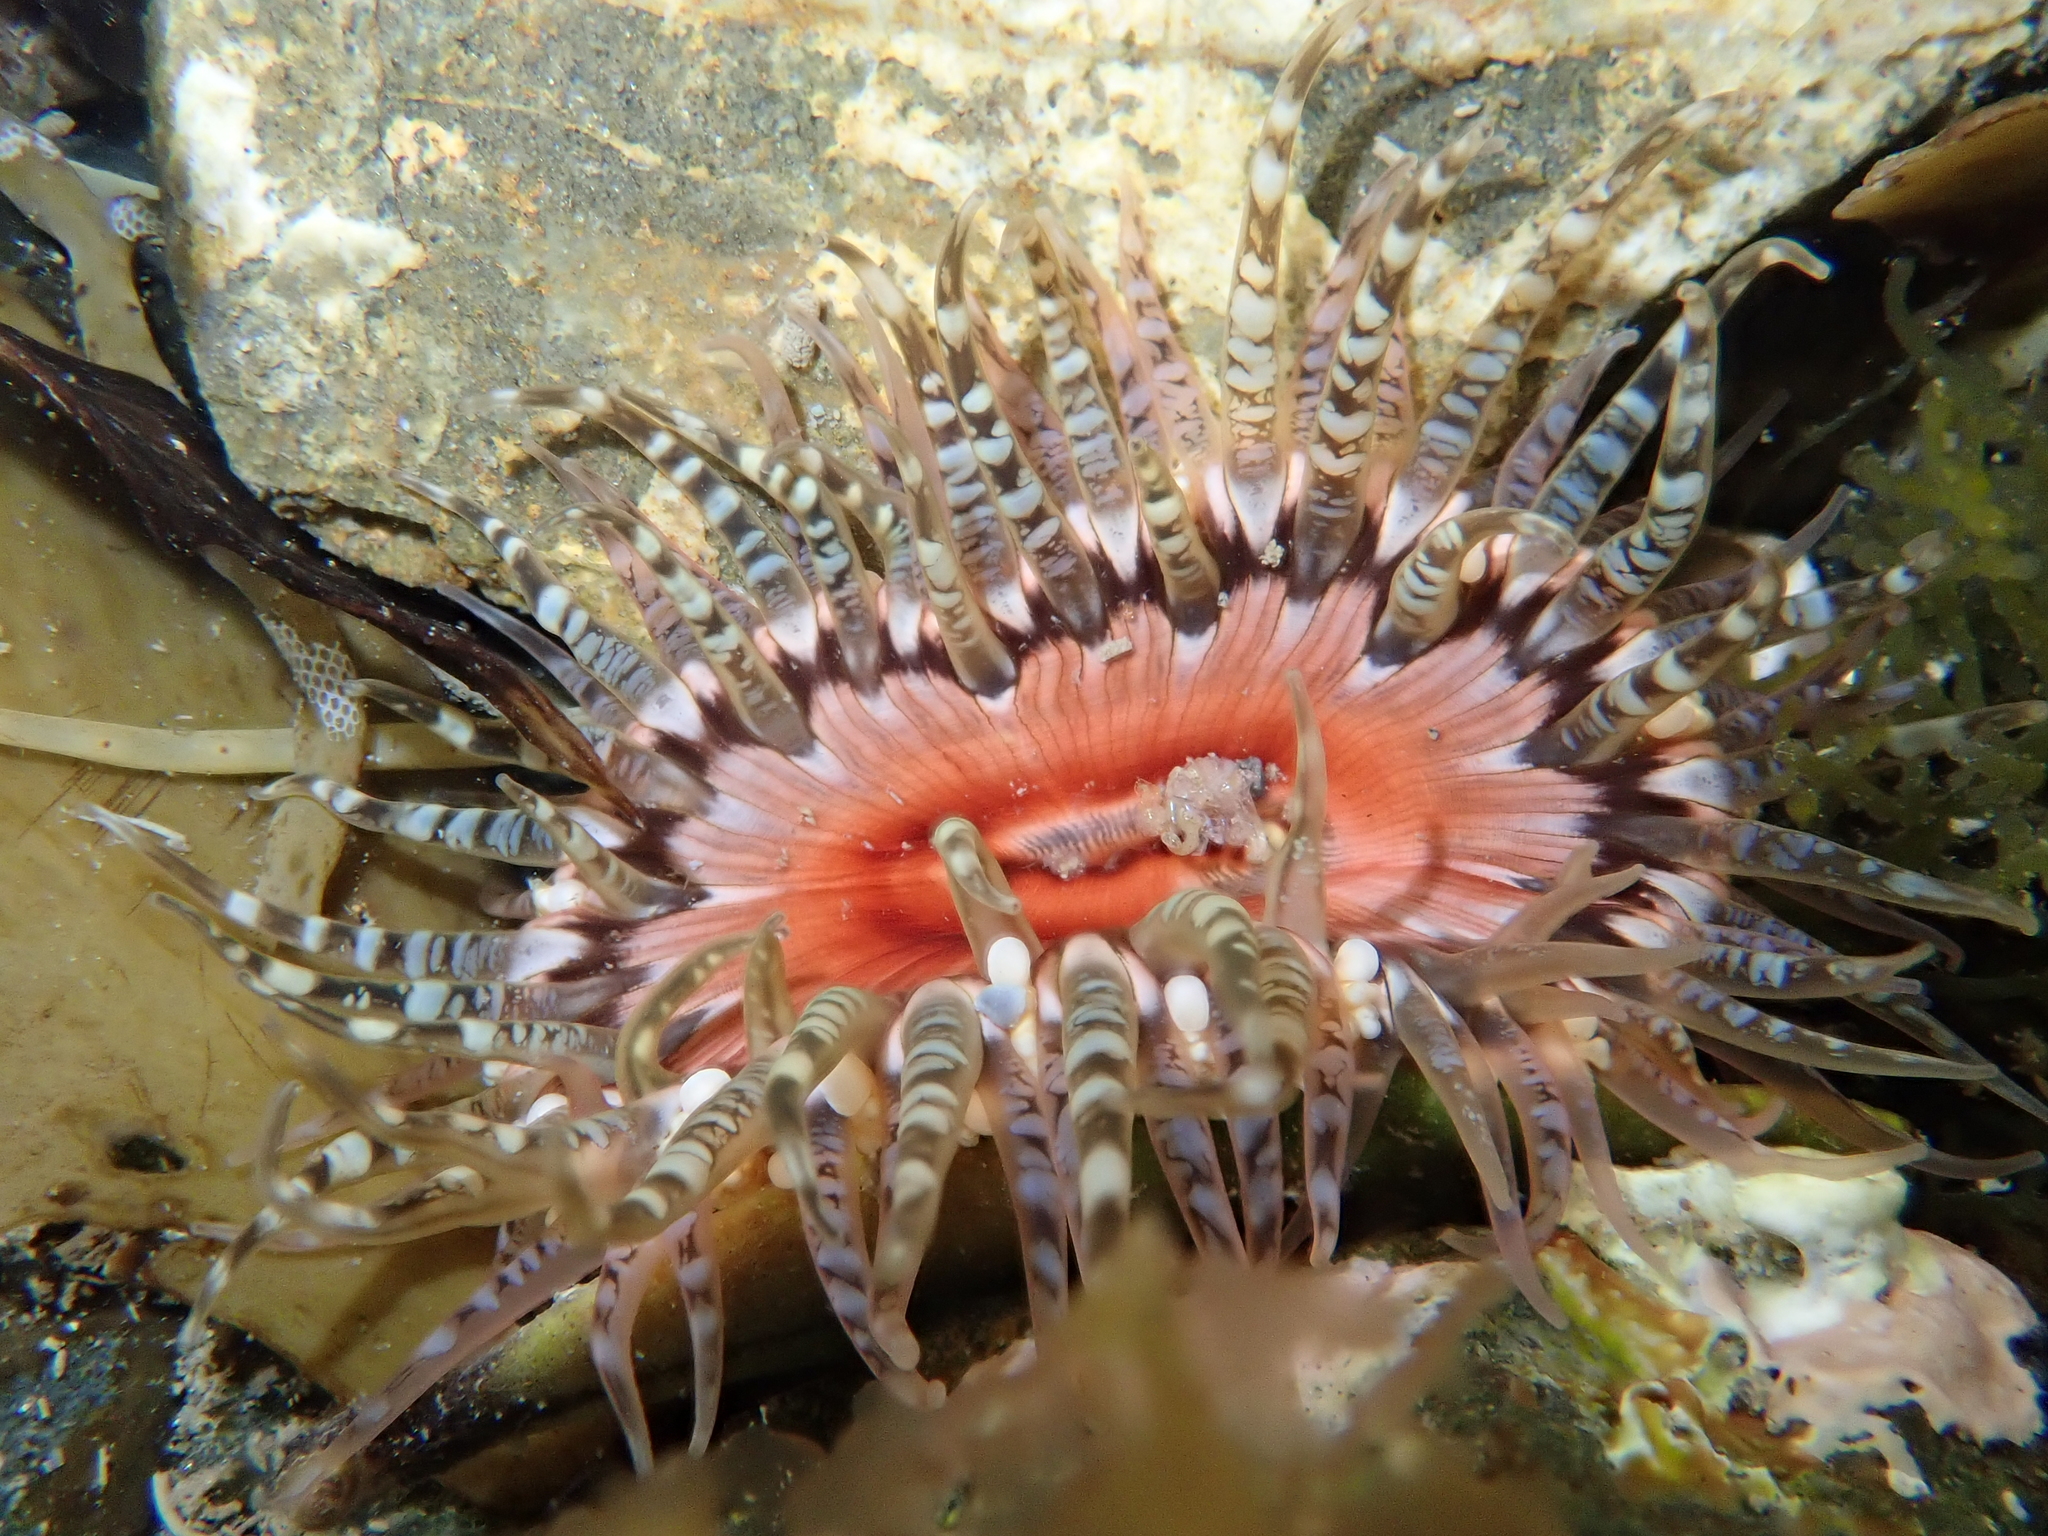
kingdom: Animalia
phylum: Cnidaria
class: Anthozoa
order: Actiniaria
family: Actiniidae
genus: Oulactis
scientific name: Oulactis muscosa
